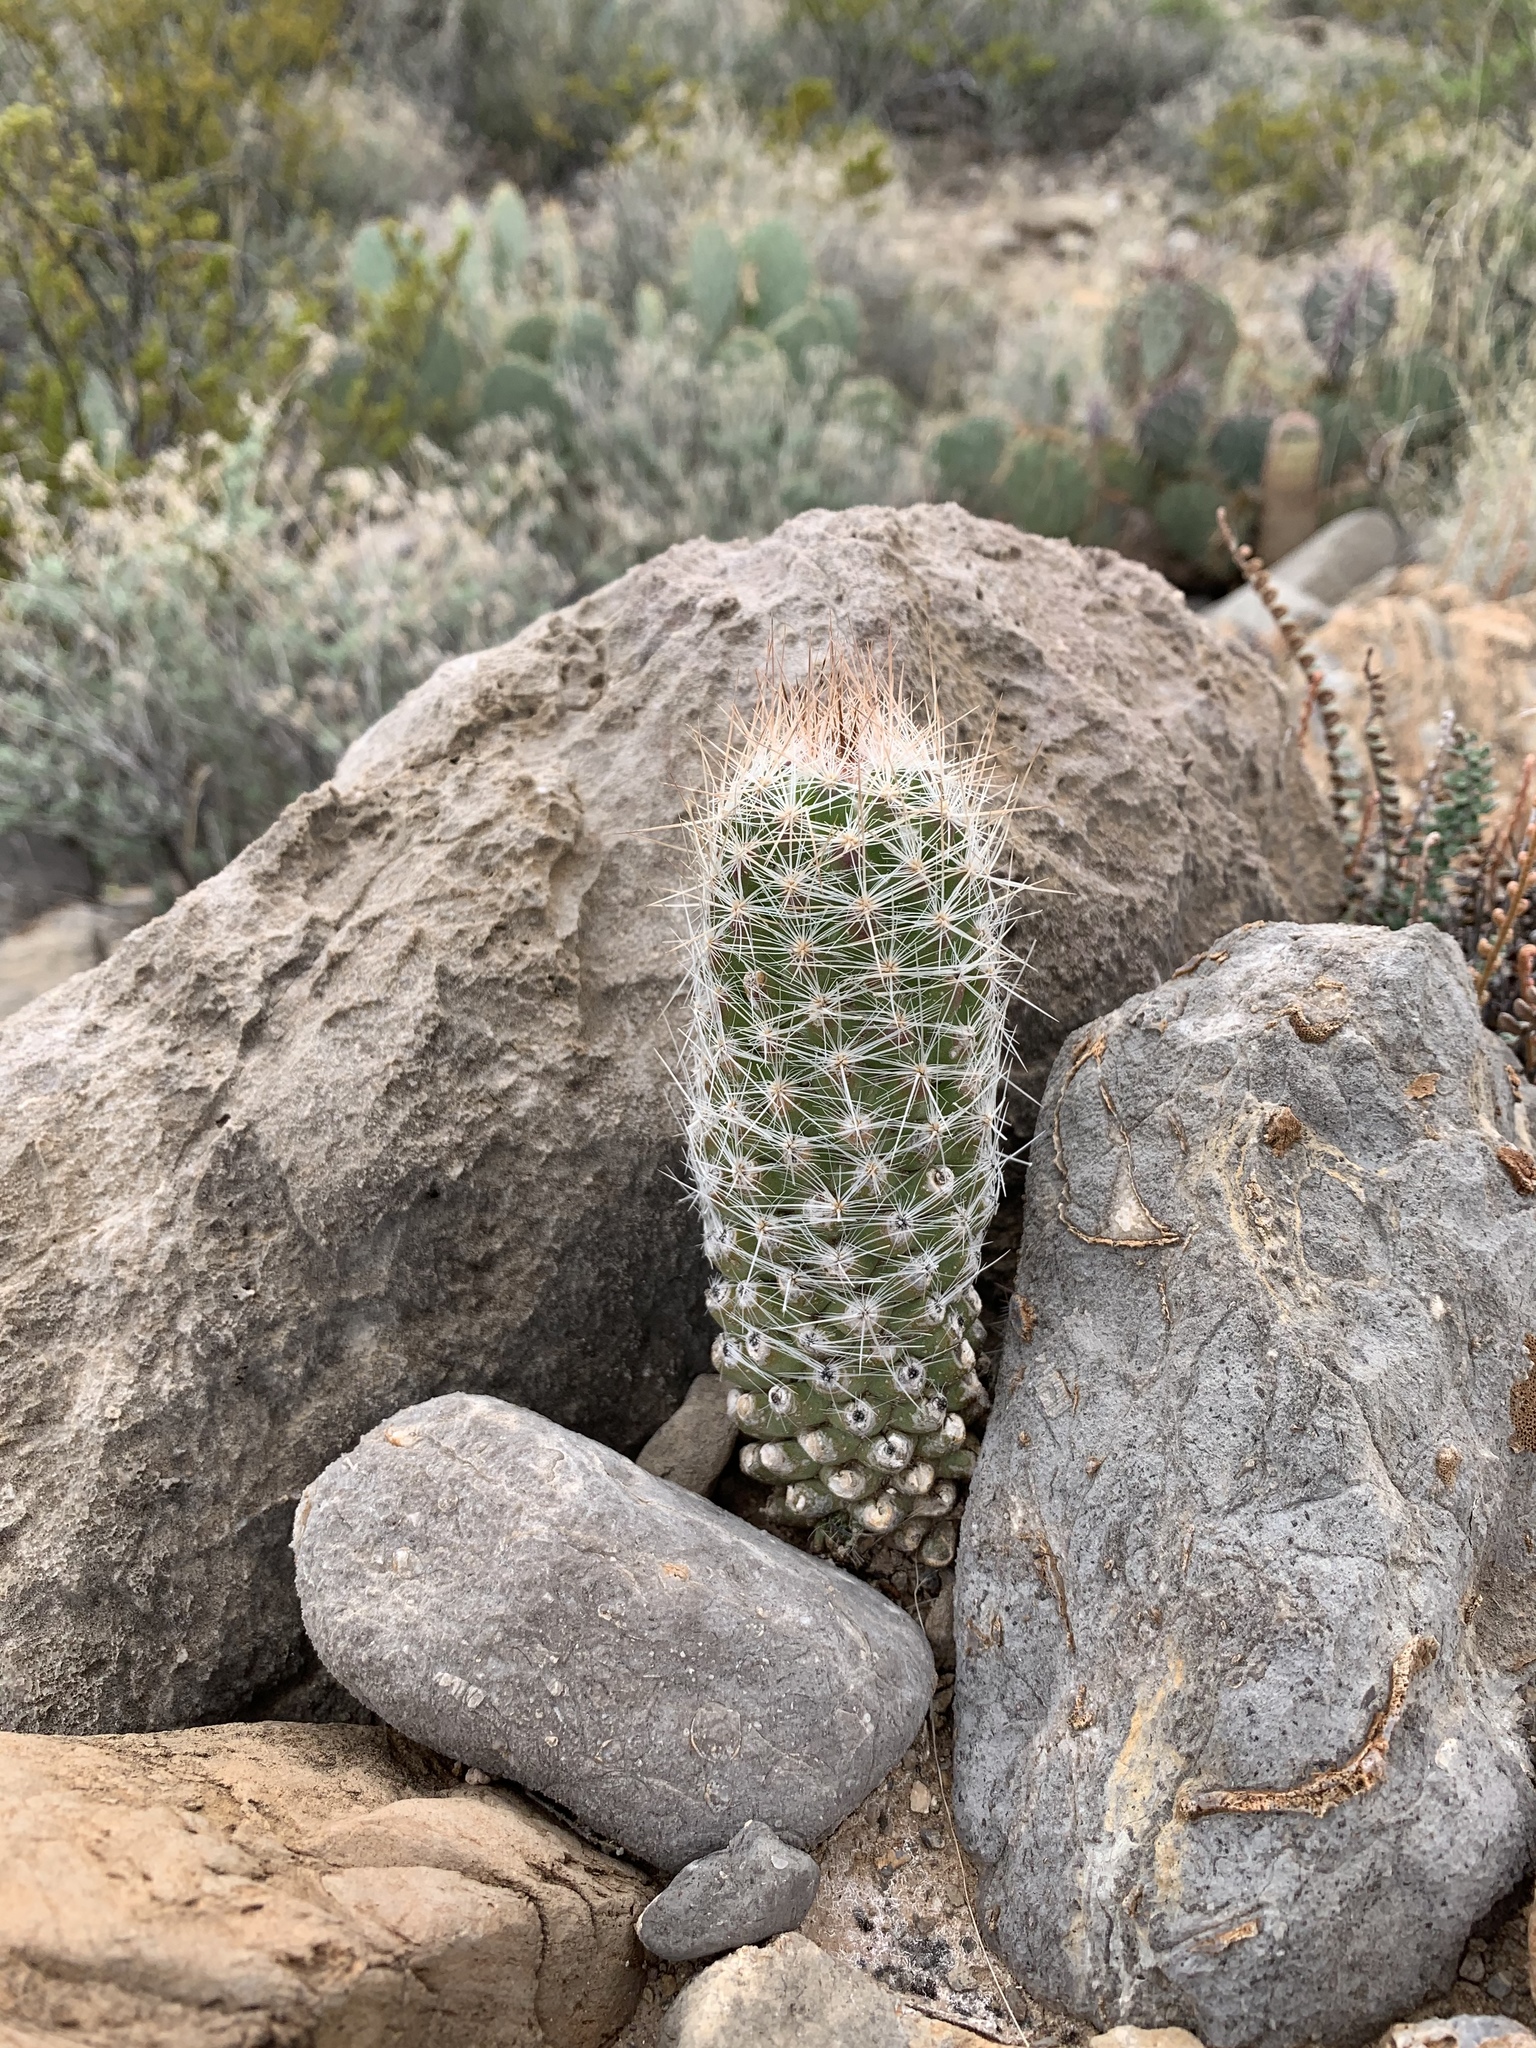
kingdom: Plantae
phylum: Tracheophyta
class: Magnoliopsida
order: Caryophyllales
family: Cactaceae
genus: Pelecyphora
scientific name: Pelecyphora tuberculosa
